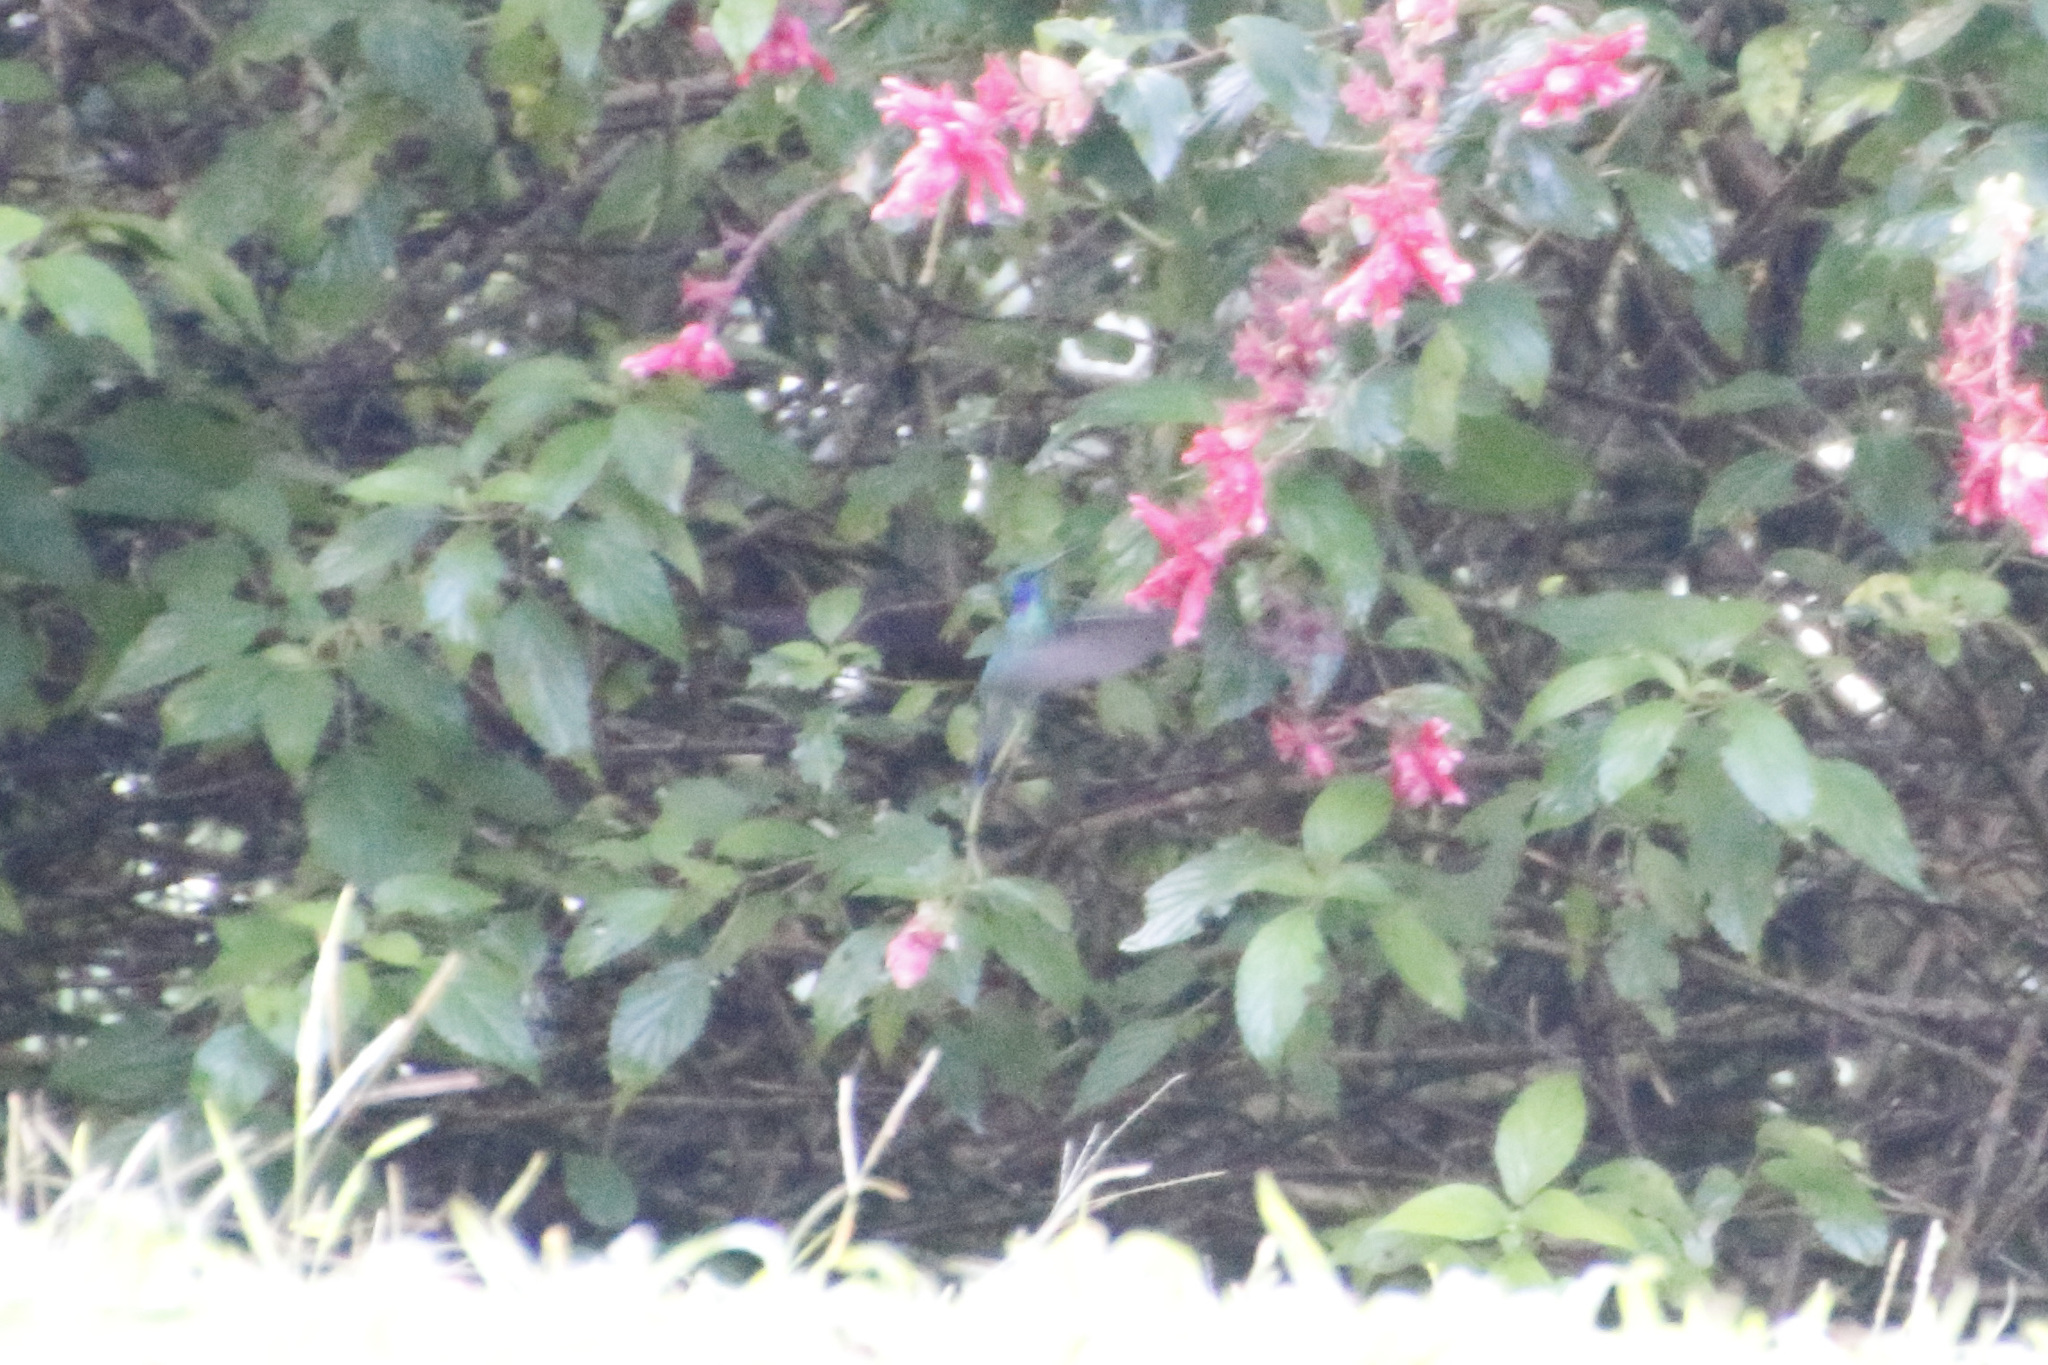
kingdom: Animalia
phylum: Chordata
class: Aves
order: Apodiformes
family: Trochilidae
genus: Colibri
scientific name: Colibri cyanotus
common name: Lesser violetear
